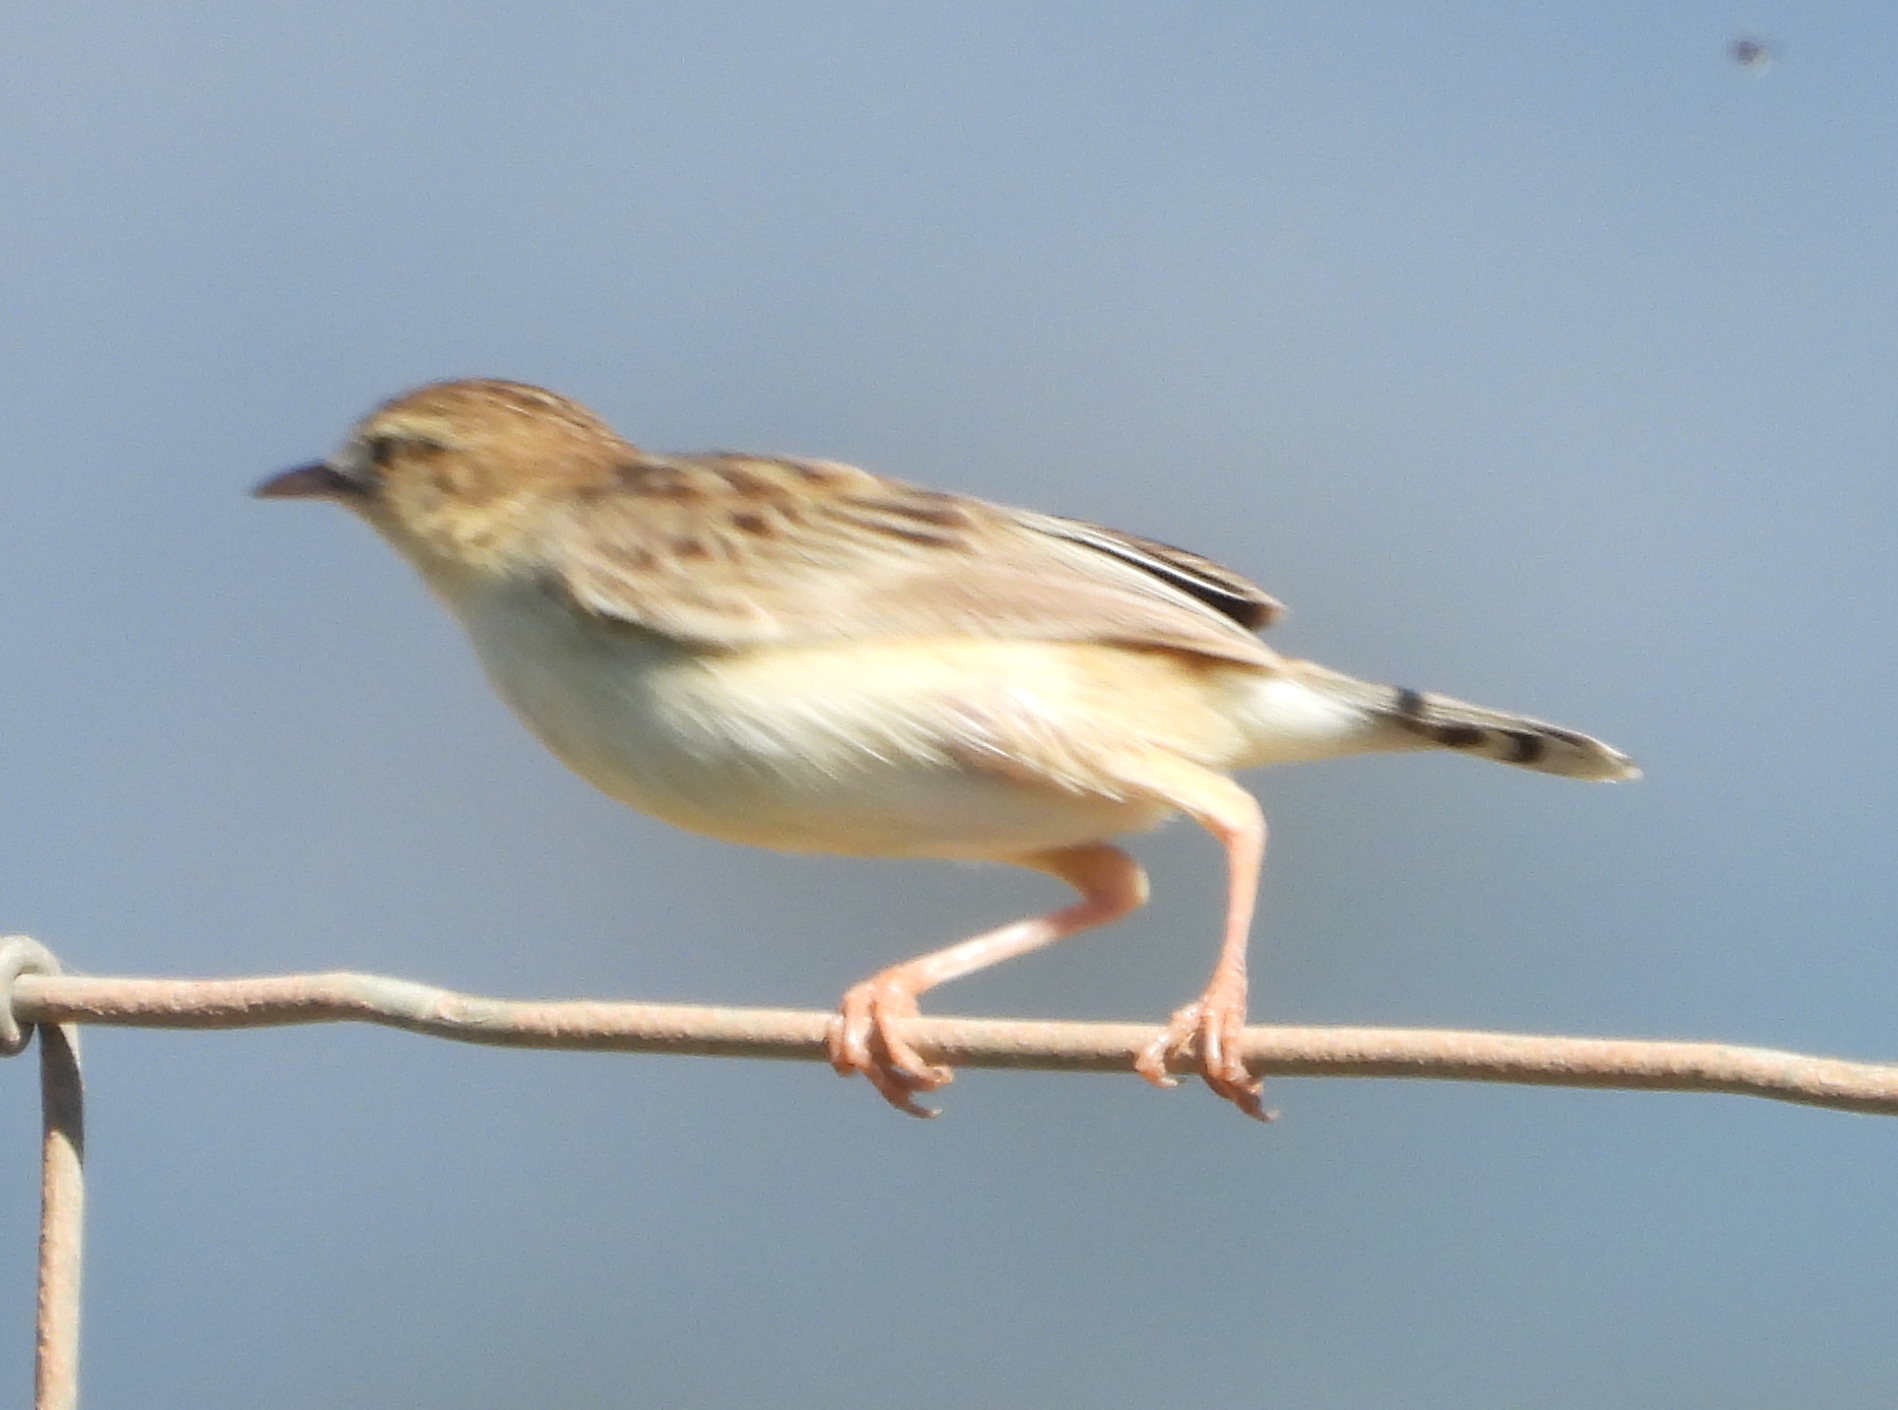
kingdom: Animalia
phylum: Chordata
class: Aves
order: Passeriformes
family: Cisticolidae
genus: Cisticola
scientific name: Cisticola juncidis
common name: Zitting cisticola
